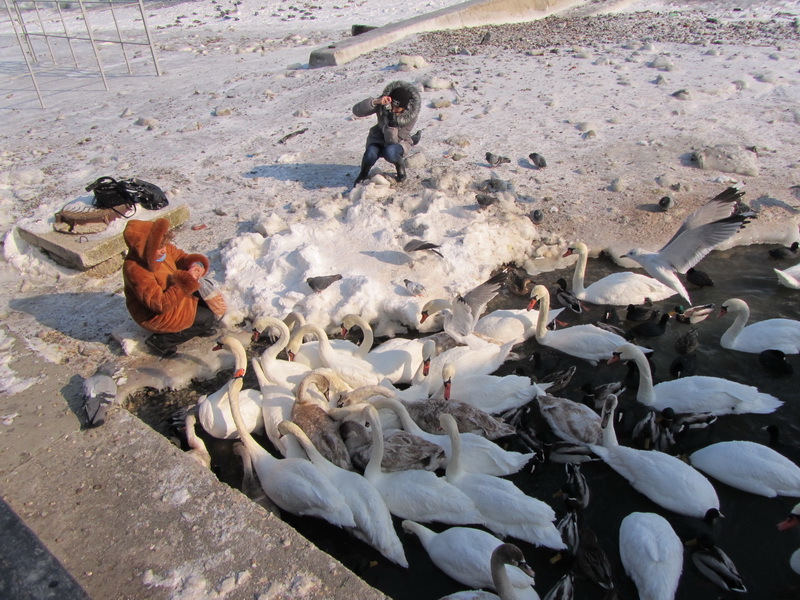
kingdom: Animalia
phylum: Chordata
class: Aves
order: Anseriformes
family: Anatidae
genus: Cygnus
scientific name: Cygnus olor
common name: Mute swan
